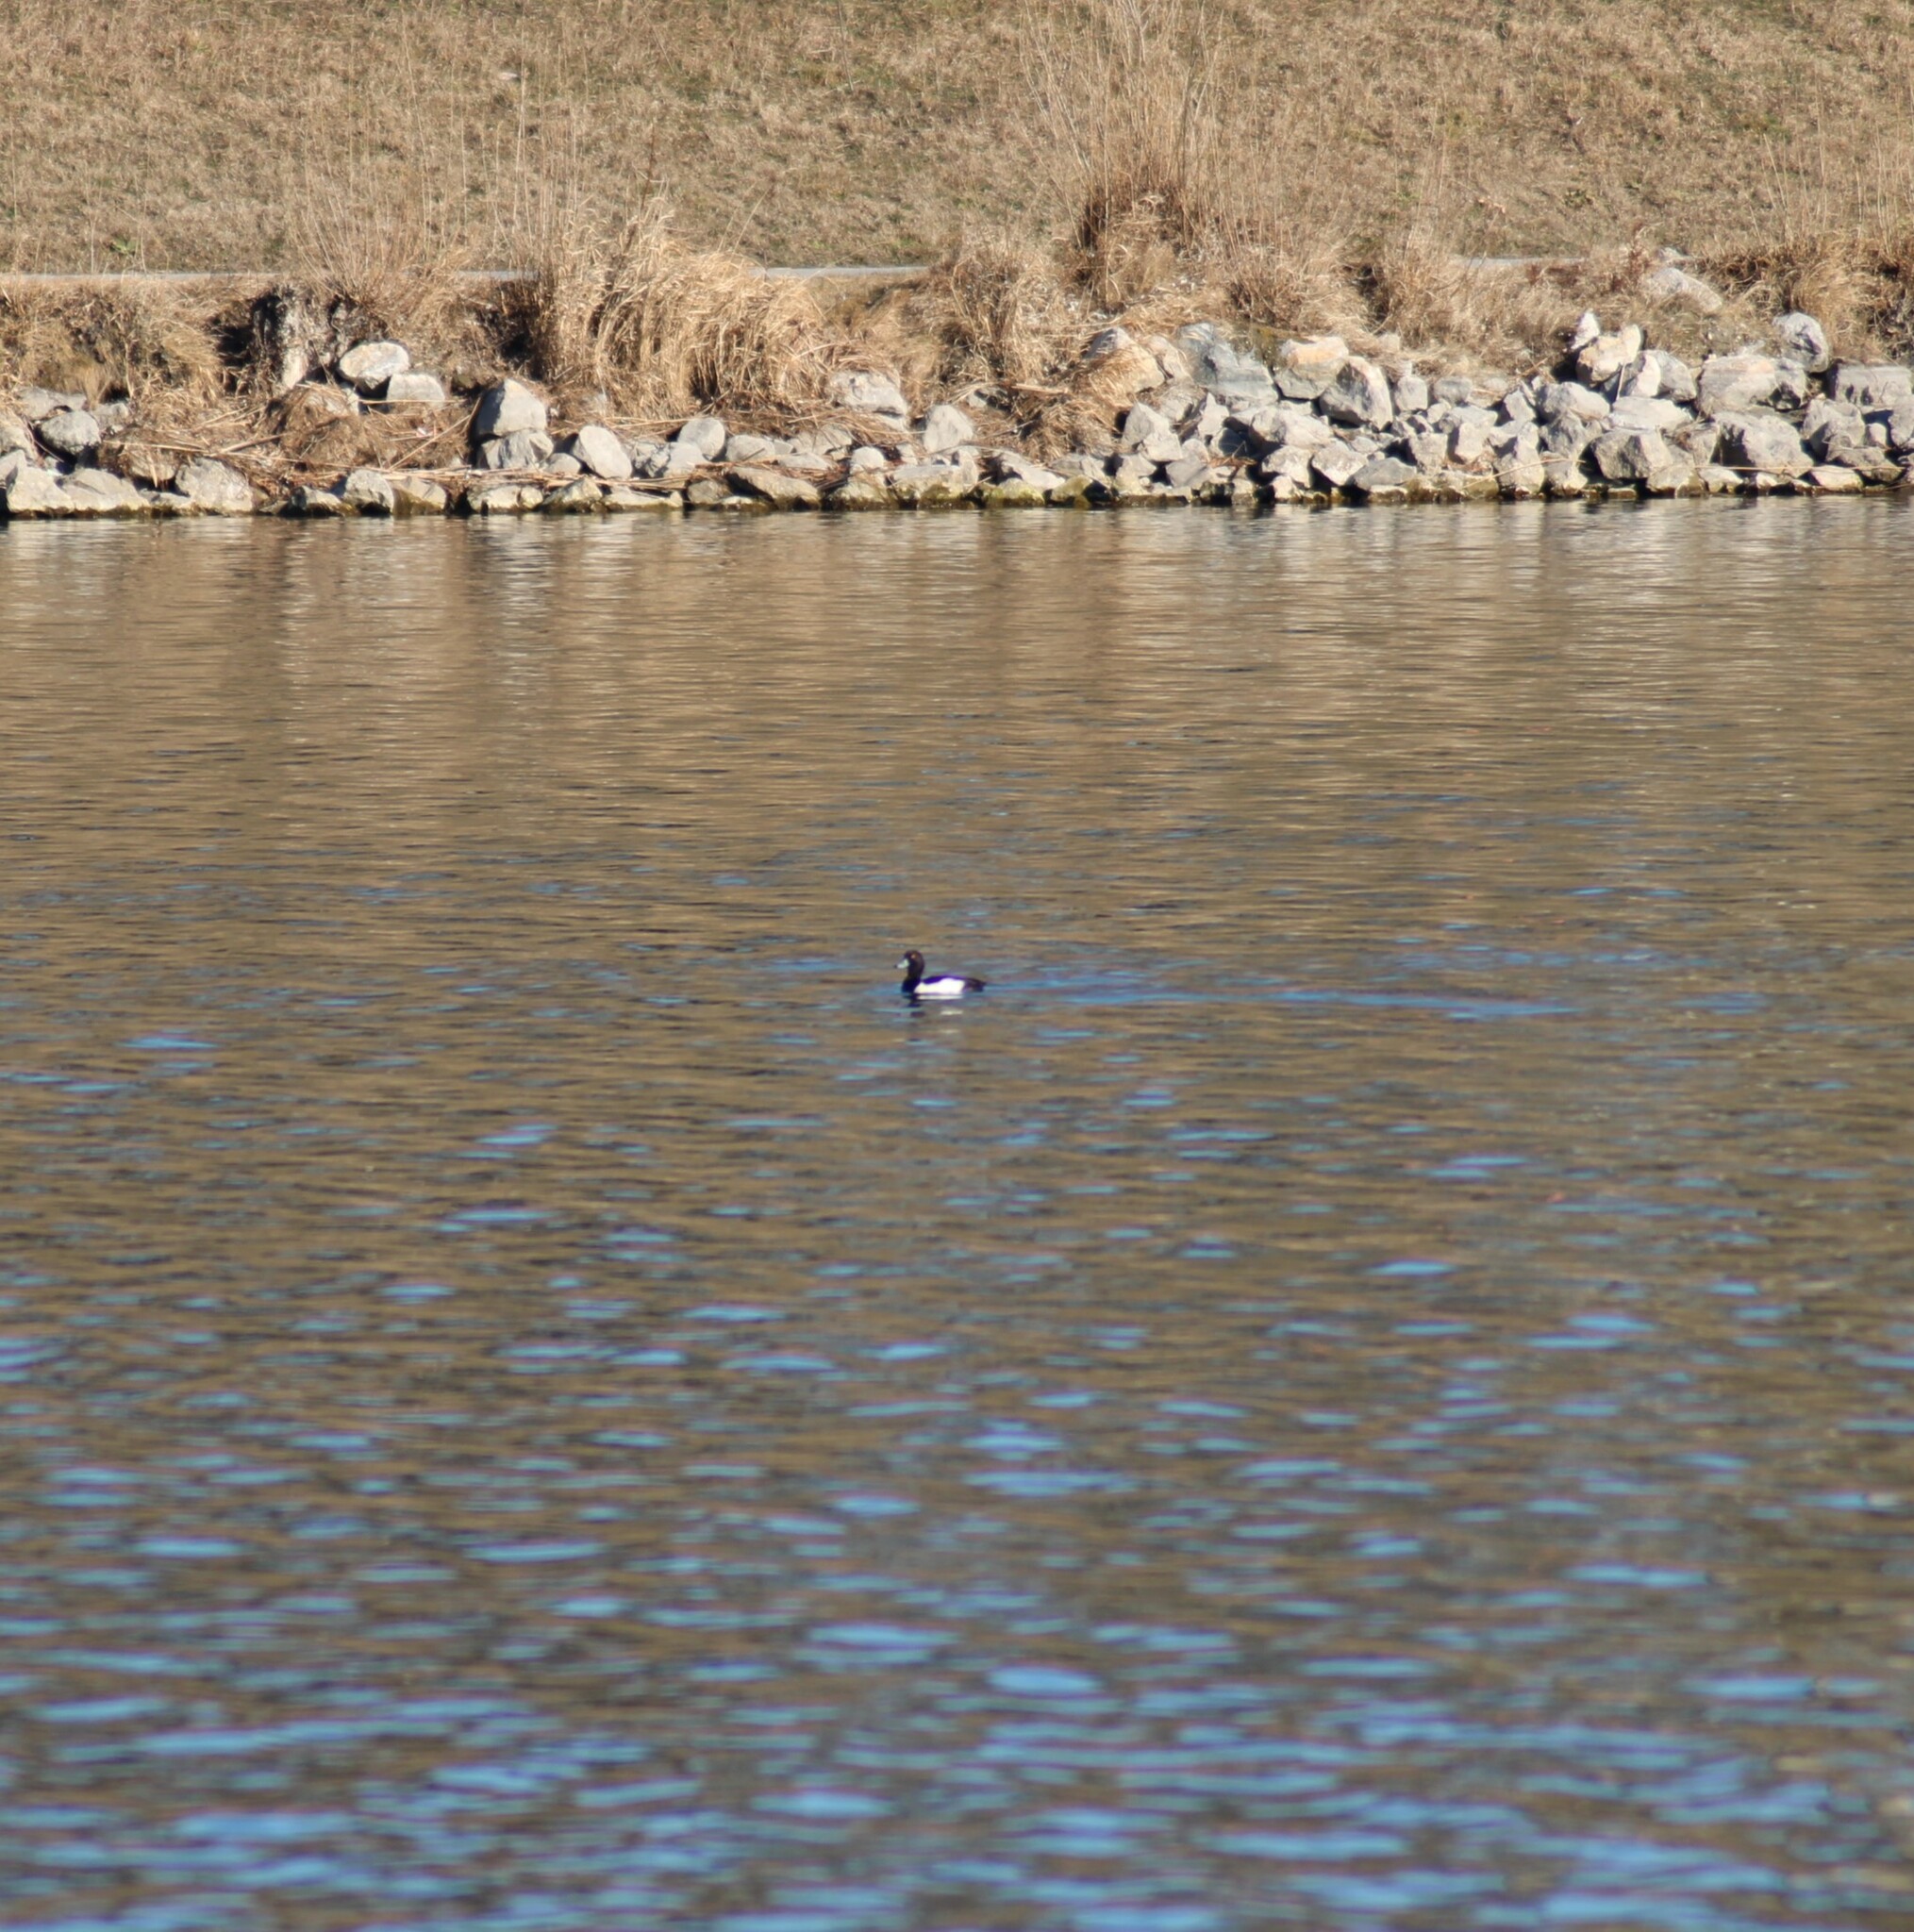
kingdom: Animalia
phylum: Chordata
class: Aves
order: Anseriformes
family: Anatidae
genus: Aythya
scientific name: Aythya fuligula
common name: Tufted duck
